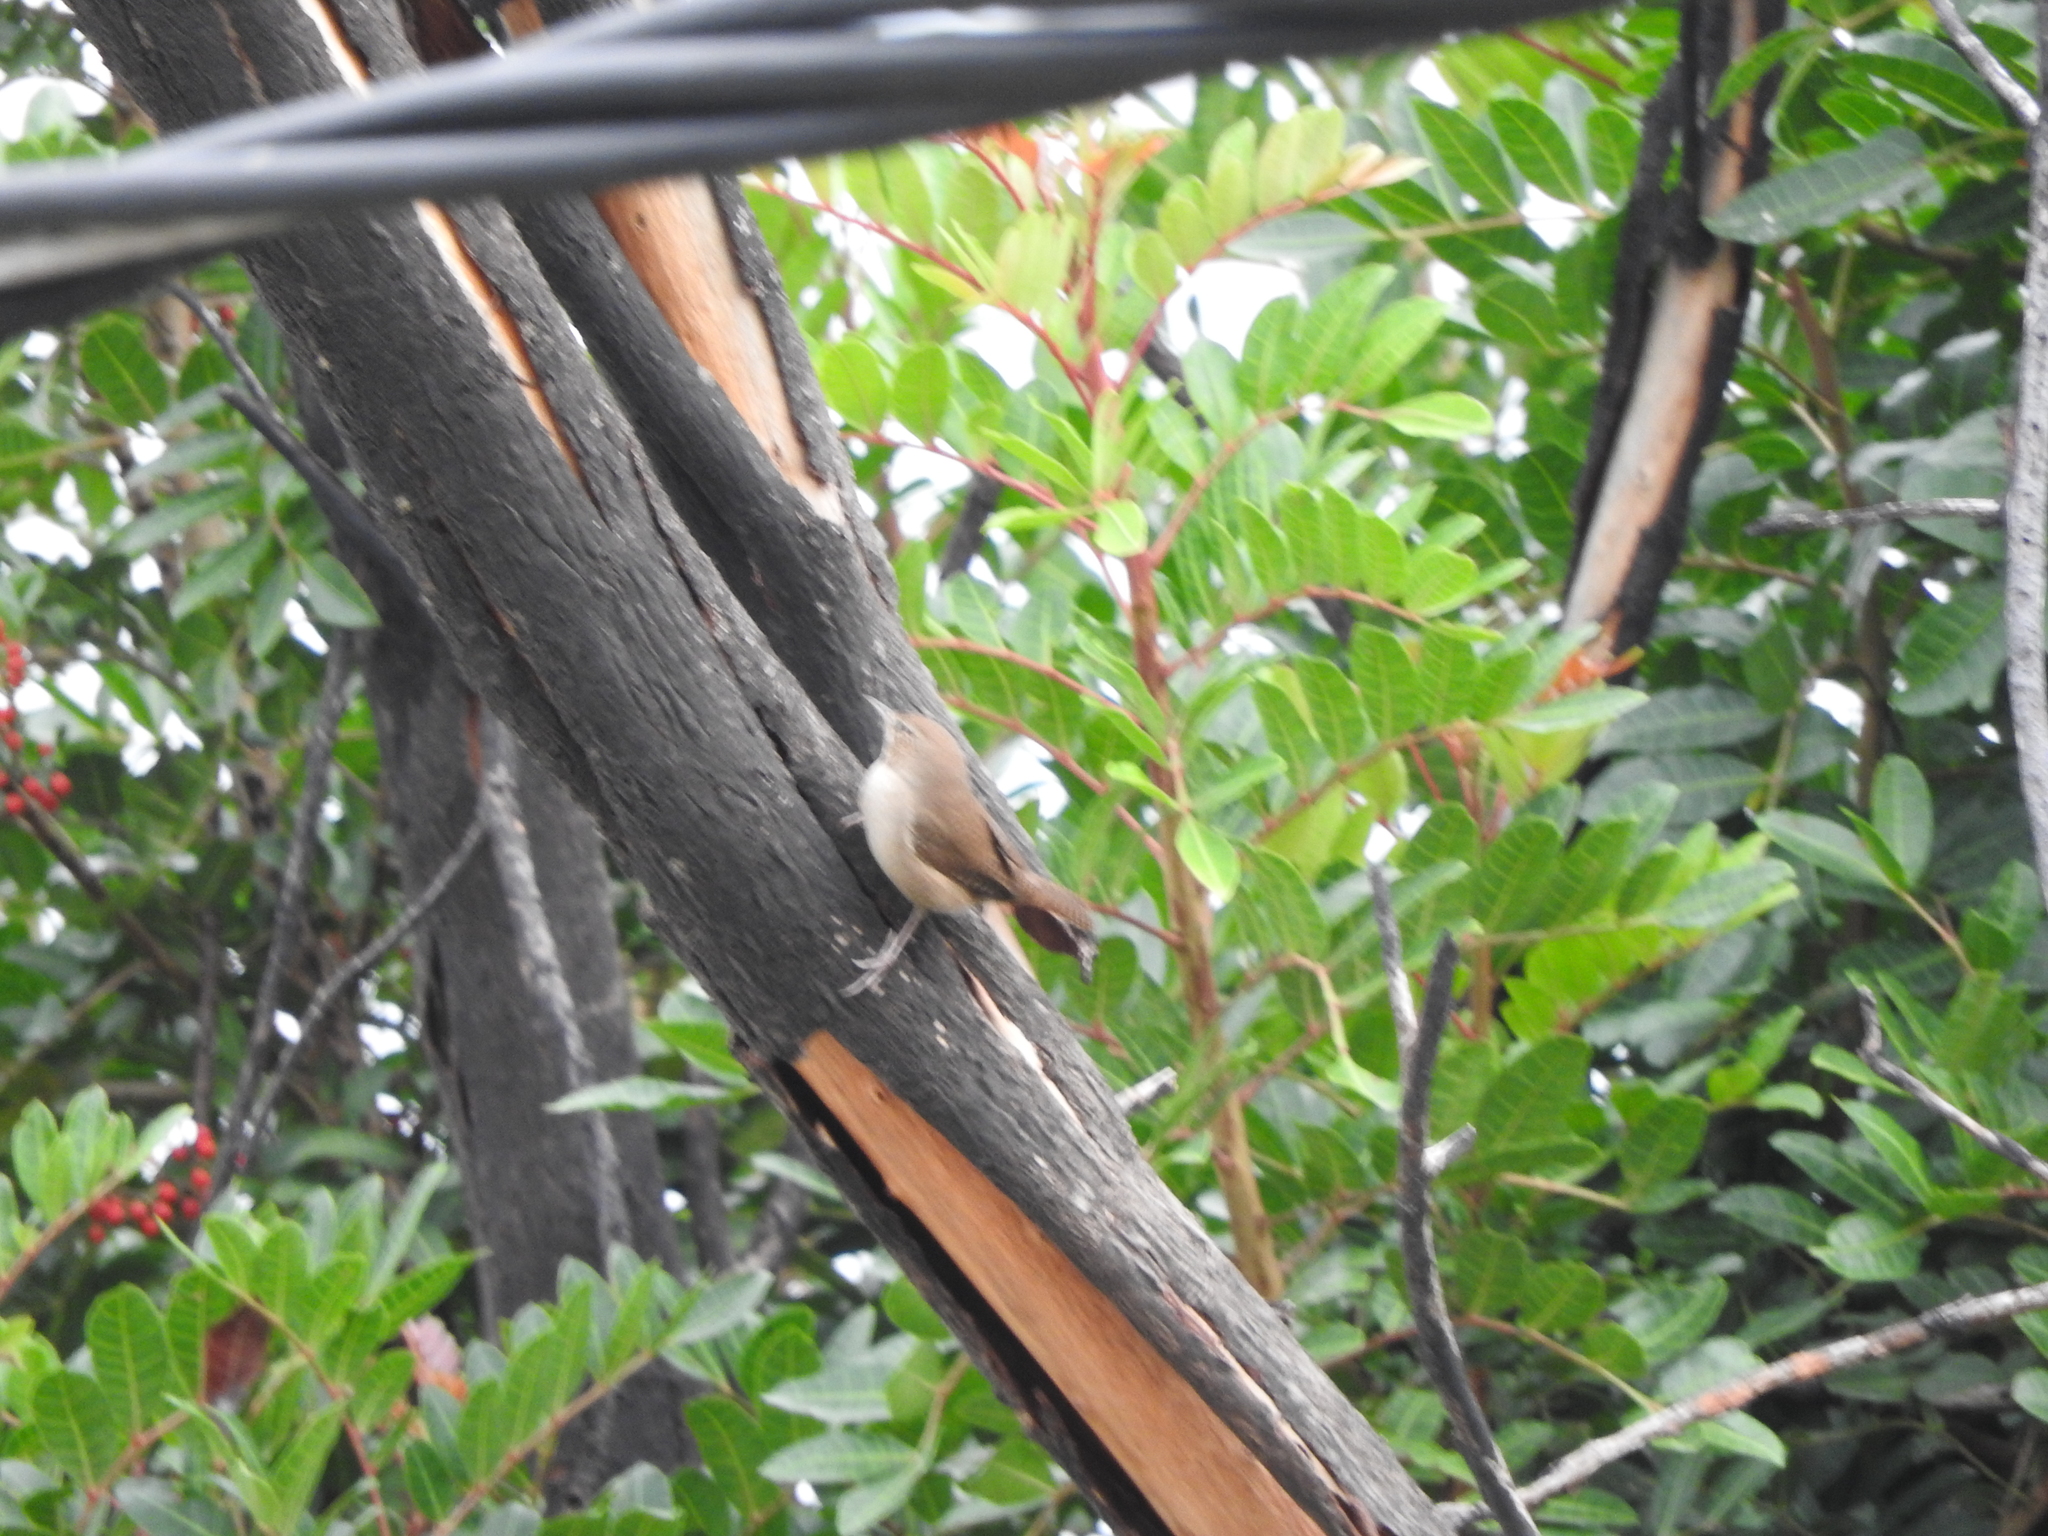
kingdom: Animalia
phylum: Chordata
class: Aves
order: Passeriformes
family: Troglodytidae
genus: Troglodytes
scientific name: Troglodytes aedon
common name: House wren
